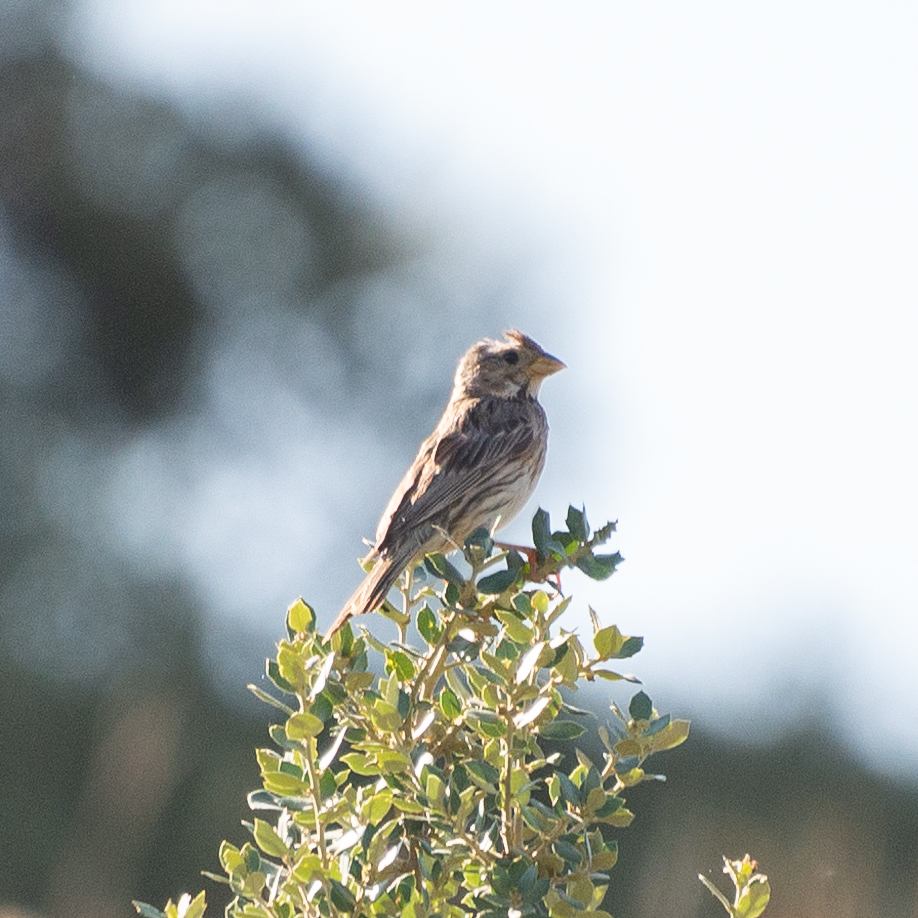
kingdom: Animalia
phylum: Chordata
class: Aves
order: Passeriformes
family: Emberizidae
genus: Emberiza
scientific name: Emberiza calandra
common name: Corn bunting
